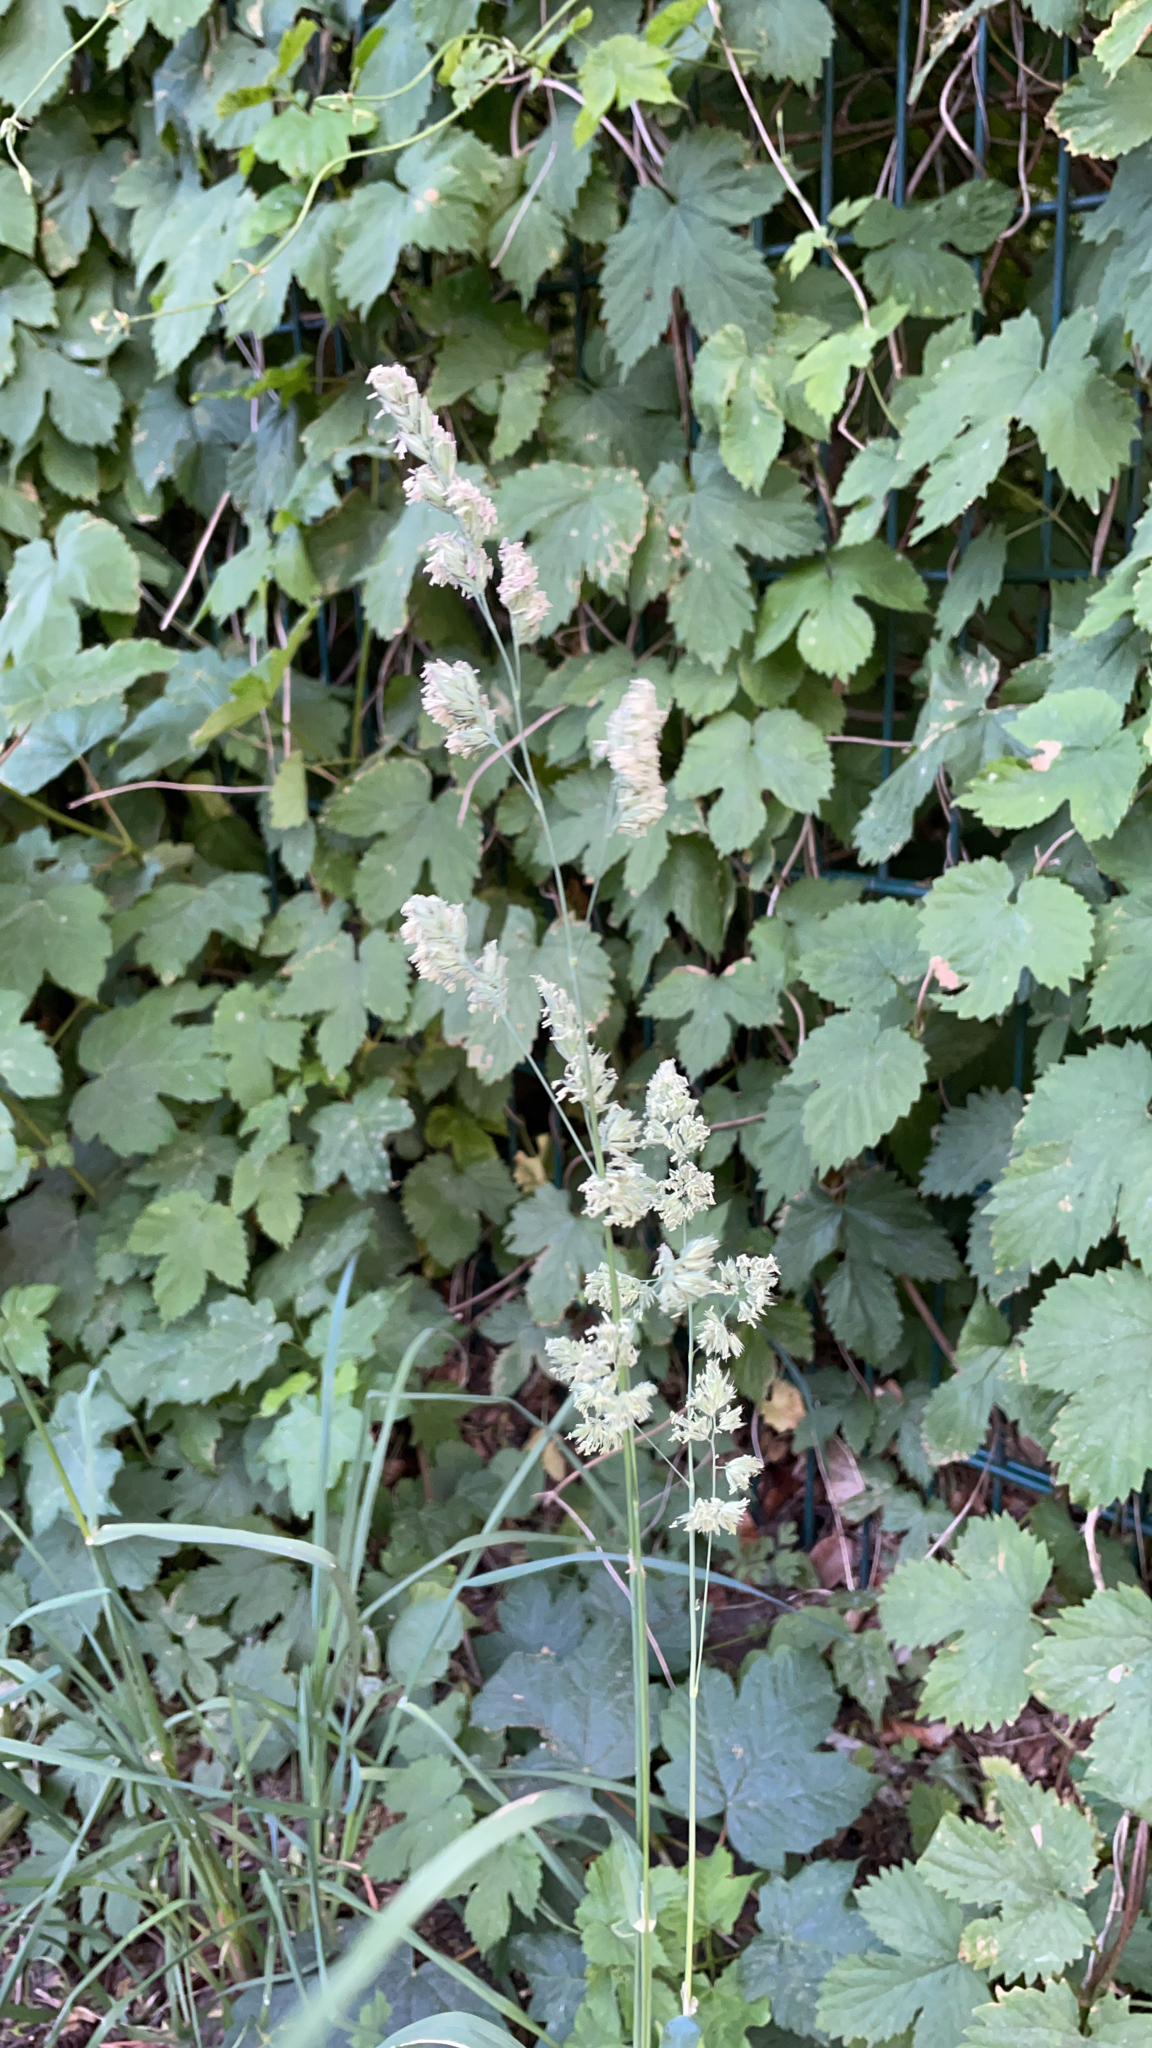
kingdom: Plantae
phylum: Tracheophyta
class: Liliopsida
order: Poales
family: Poaceae
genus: Dactylis
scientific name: Dactylis glomerata
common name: Orchardgrass
